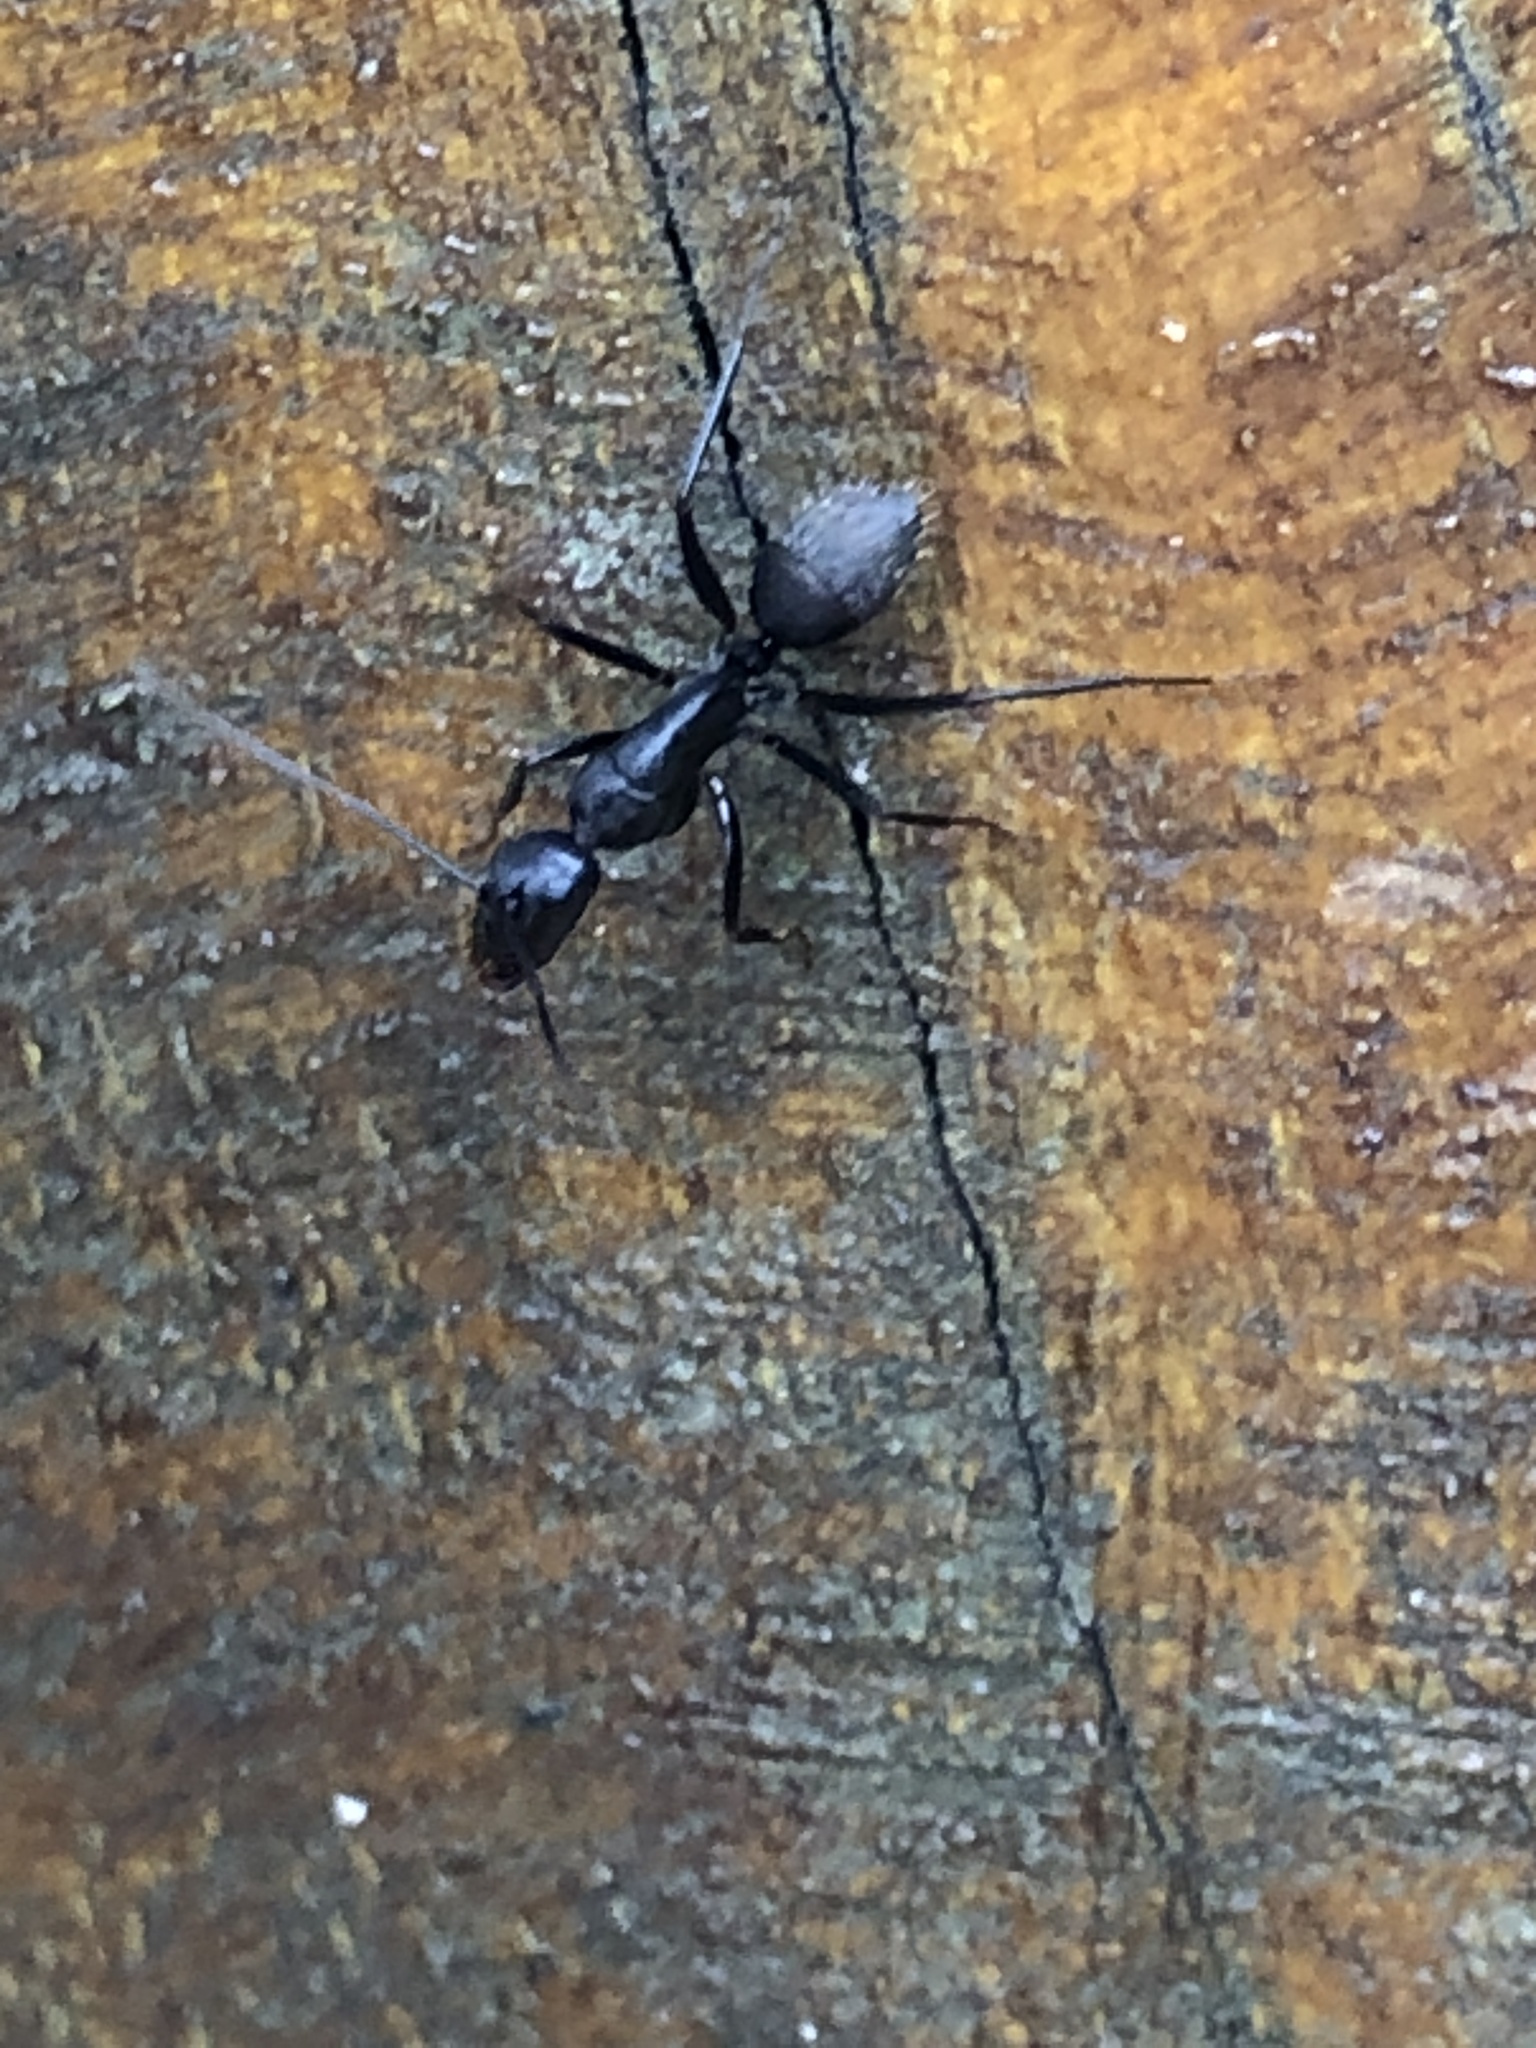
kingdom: Animalia
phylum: Arthropoda
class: Insecta
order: Hymenoptera
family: Formicidae
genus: Camponotus
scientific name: Camponotus japonicus
